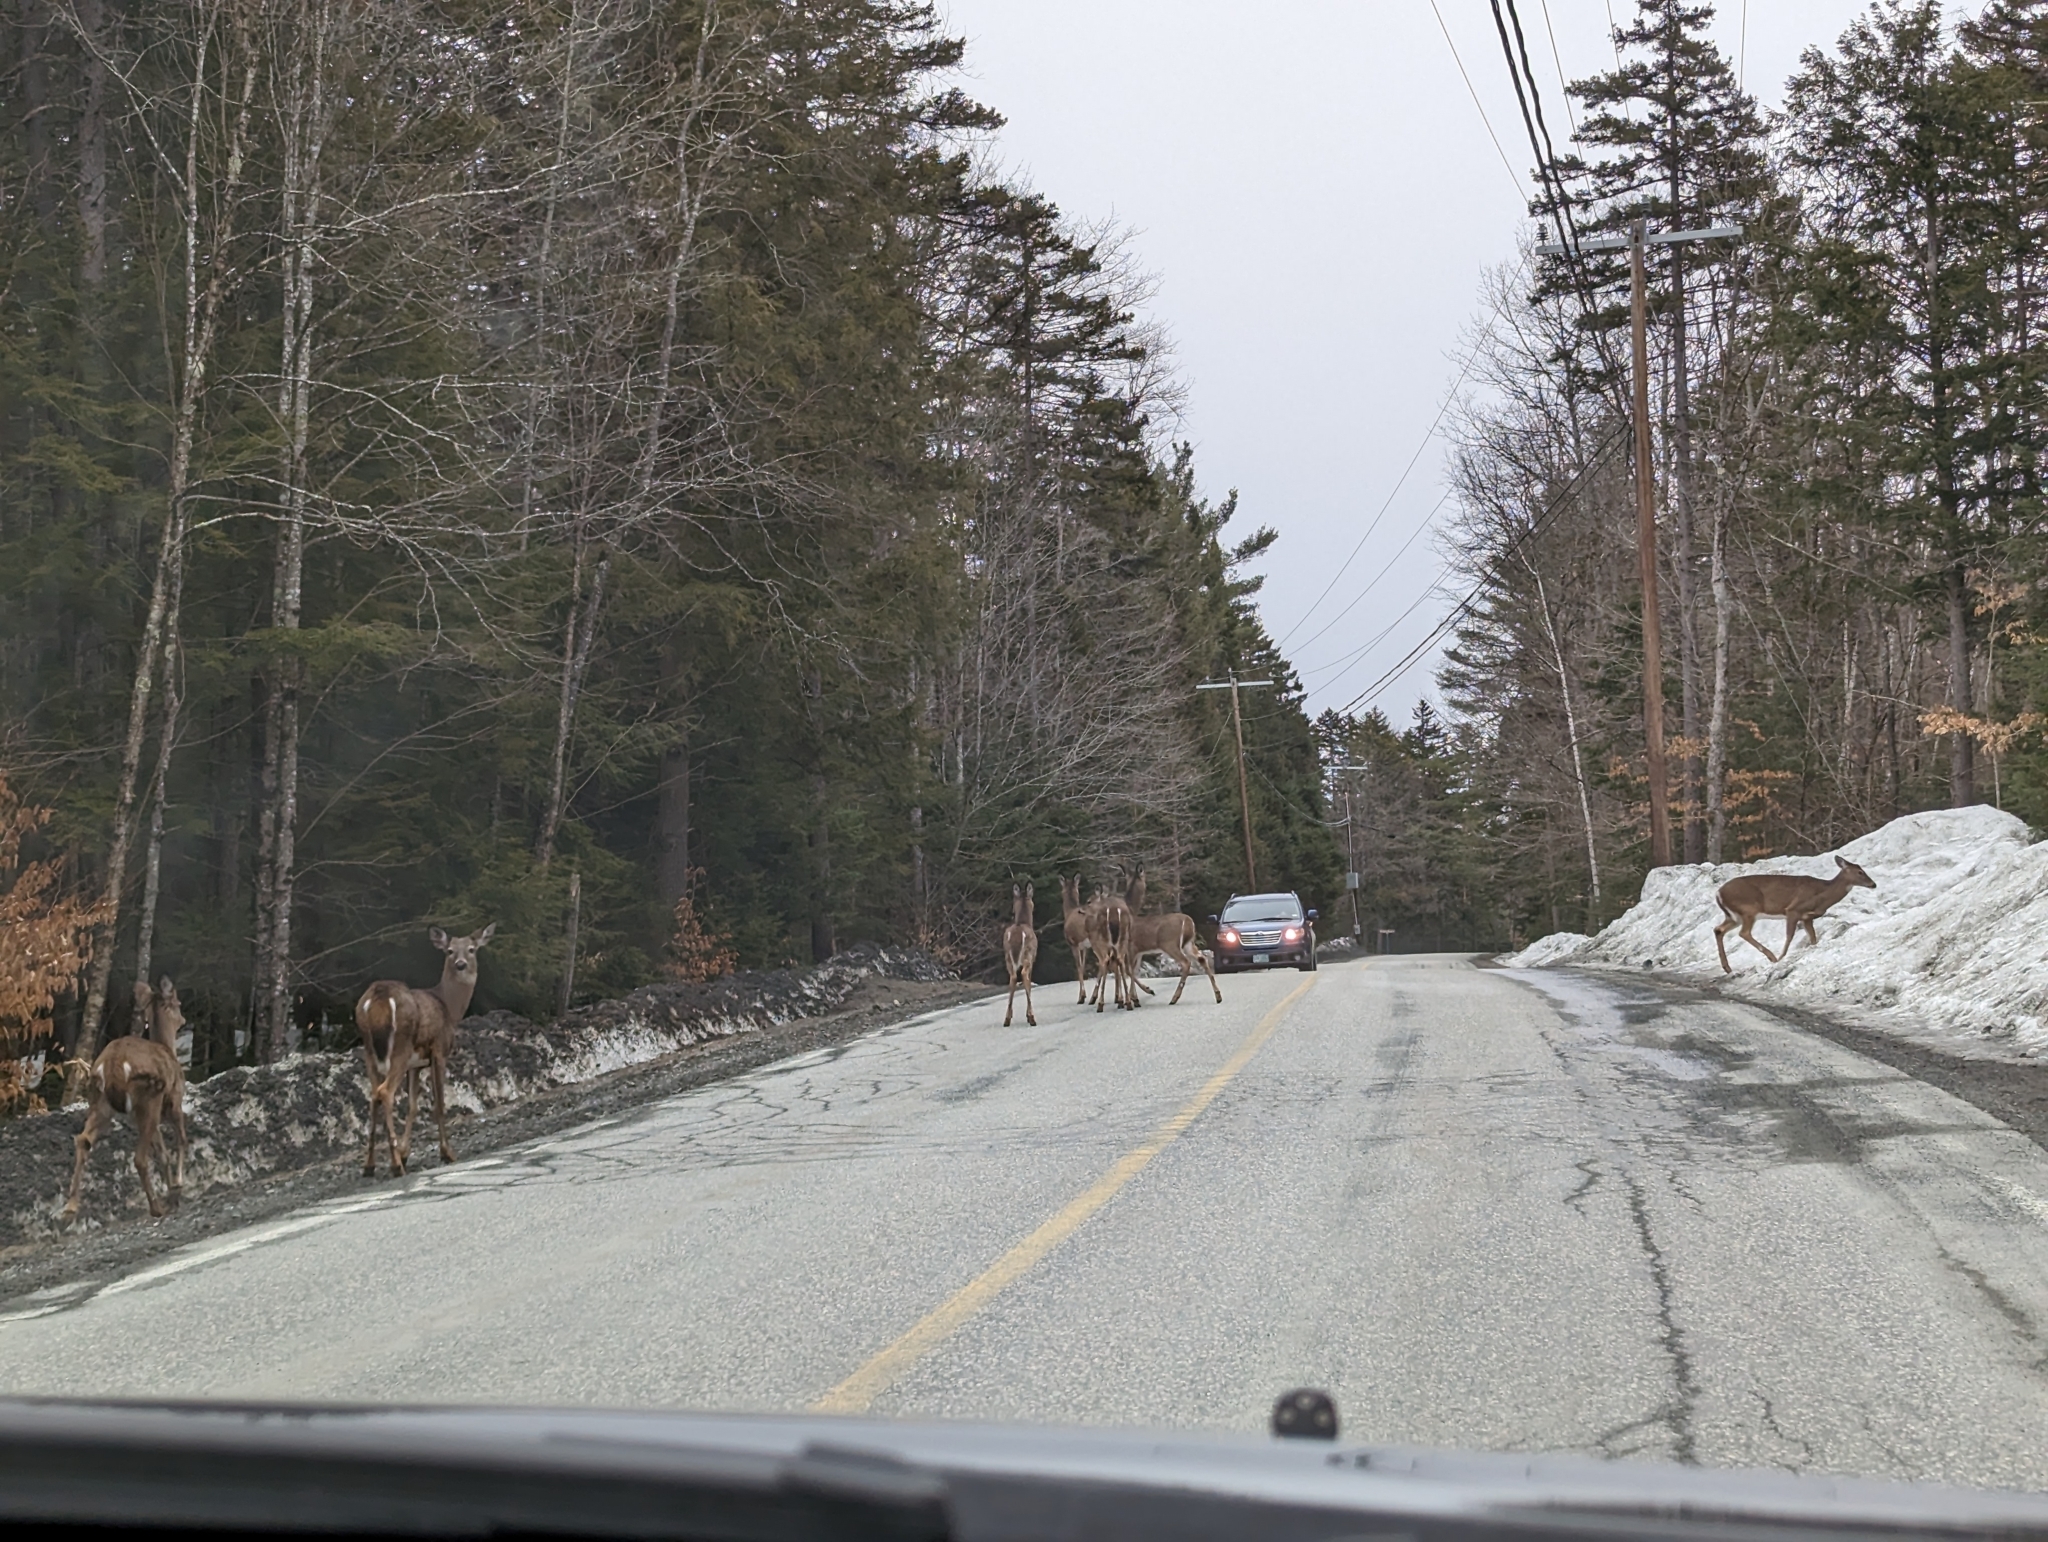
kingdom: Animalia
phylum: Chordata
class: Mammalia
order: Artiodactyla
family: Cervidae
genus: Odocoileus
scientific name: Odocoileus virginianus
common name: White-tailed deer
